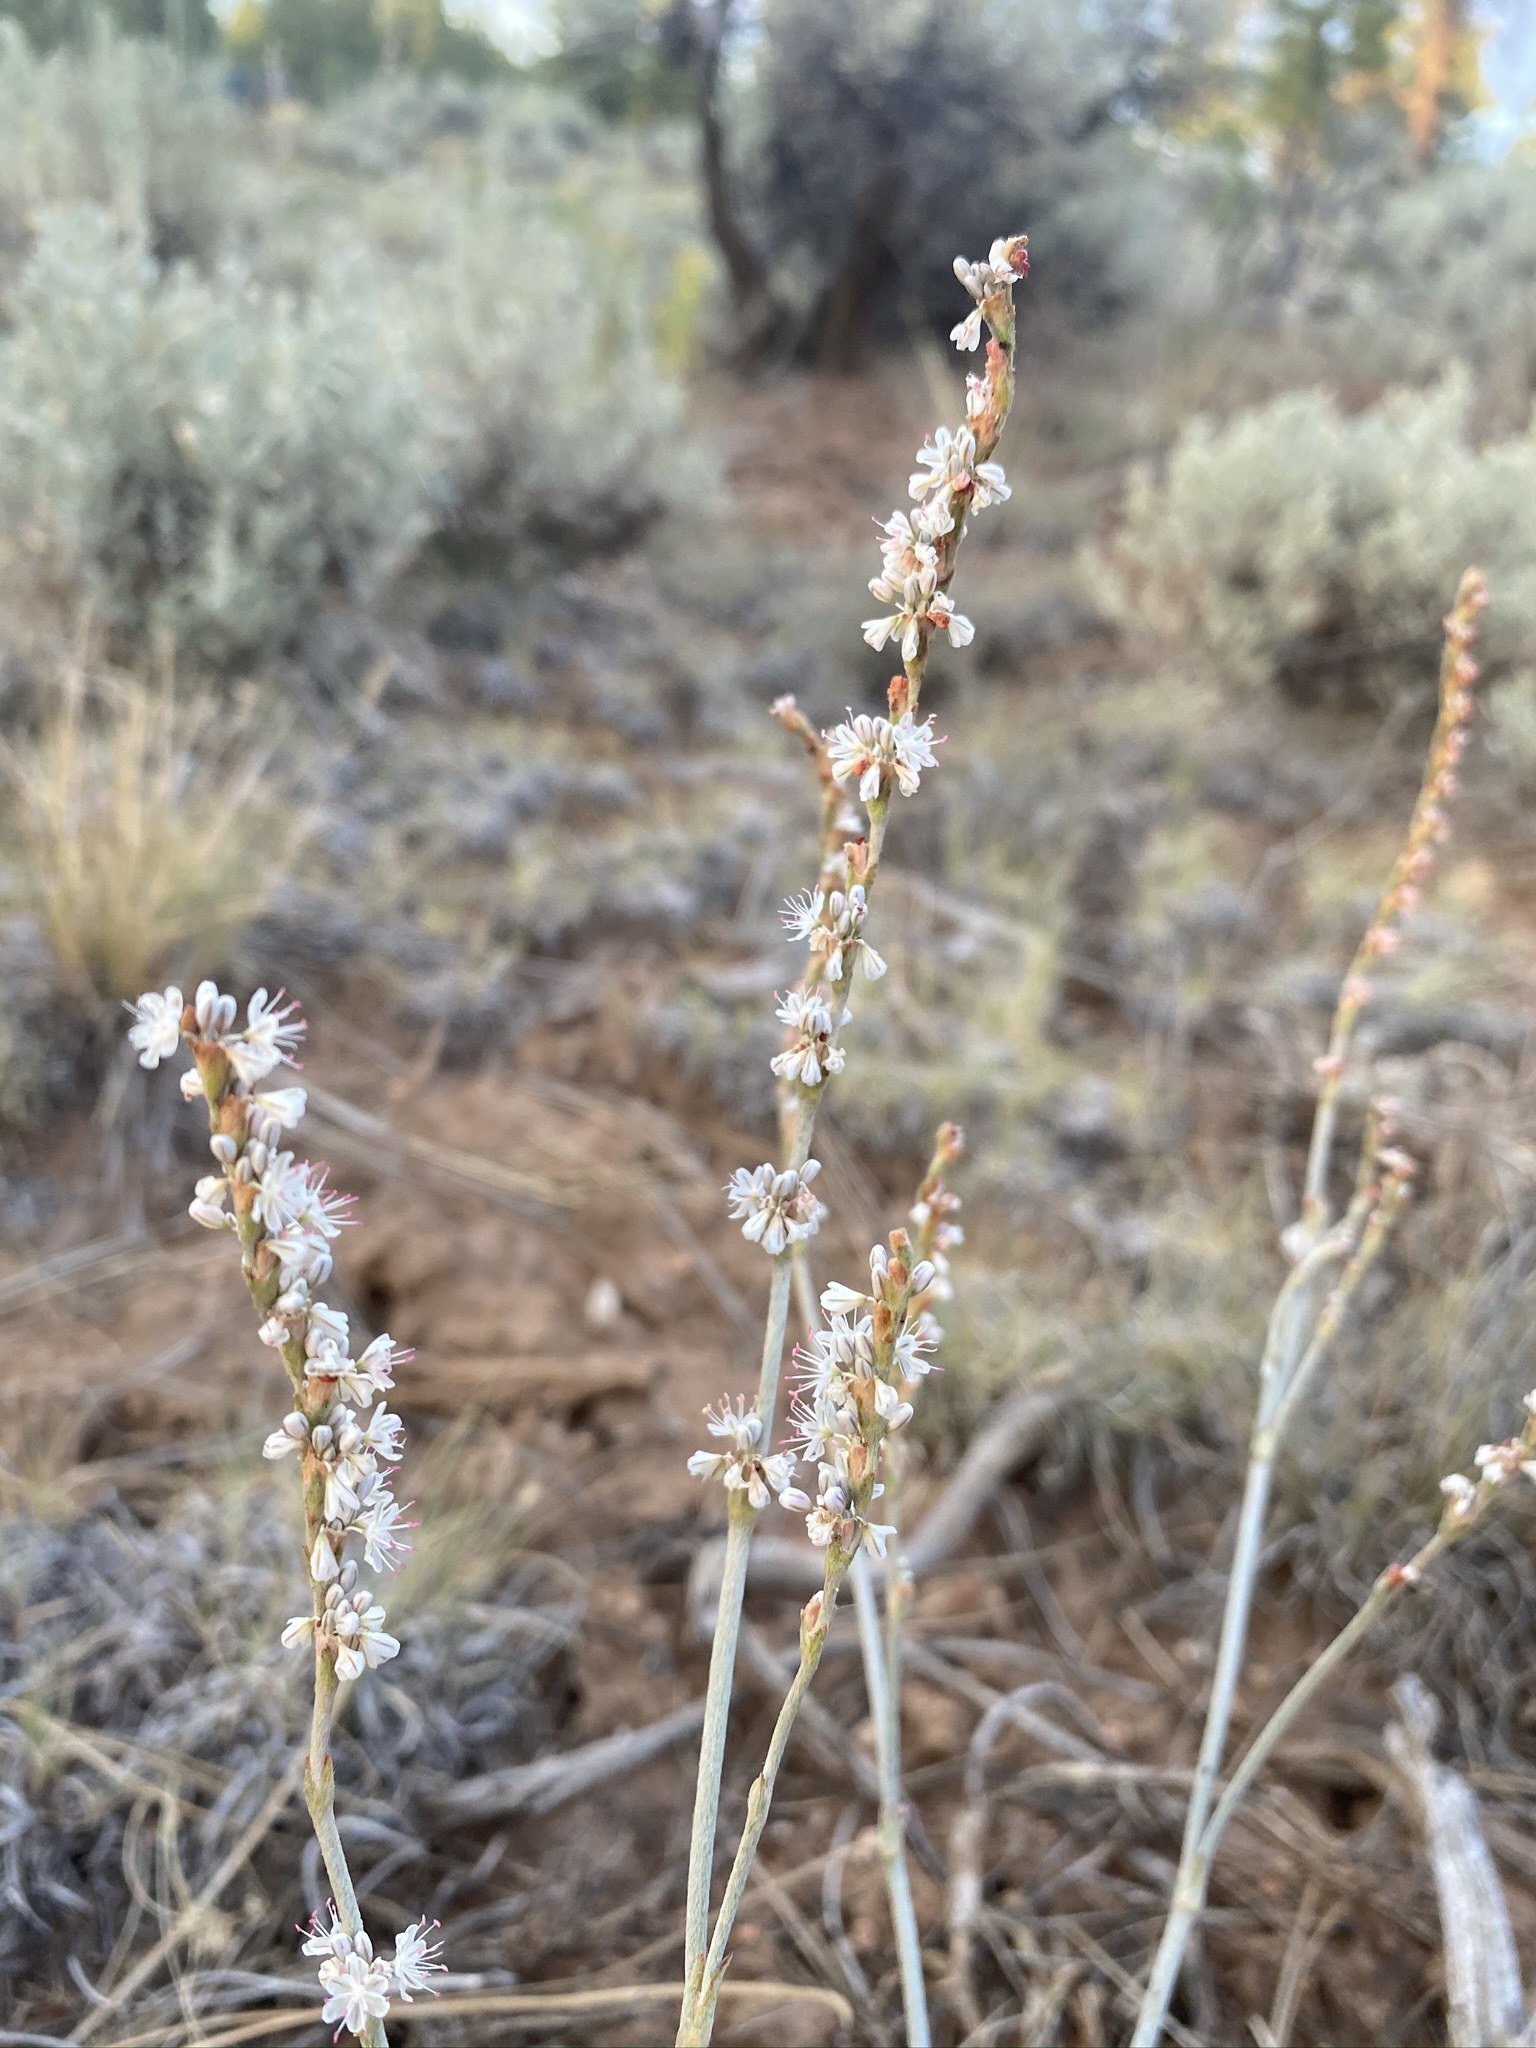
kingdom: Plantae
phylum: Tracheophyta
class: Magnoliopsida
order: Caryophyllales
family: Polygonaceae
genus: Eriogonum
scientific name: Eriogonum racemosum
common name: Redroot wild buckwheat
